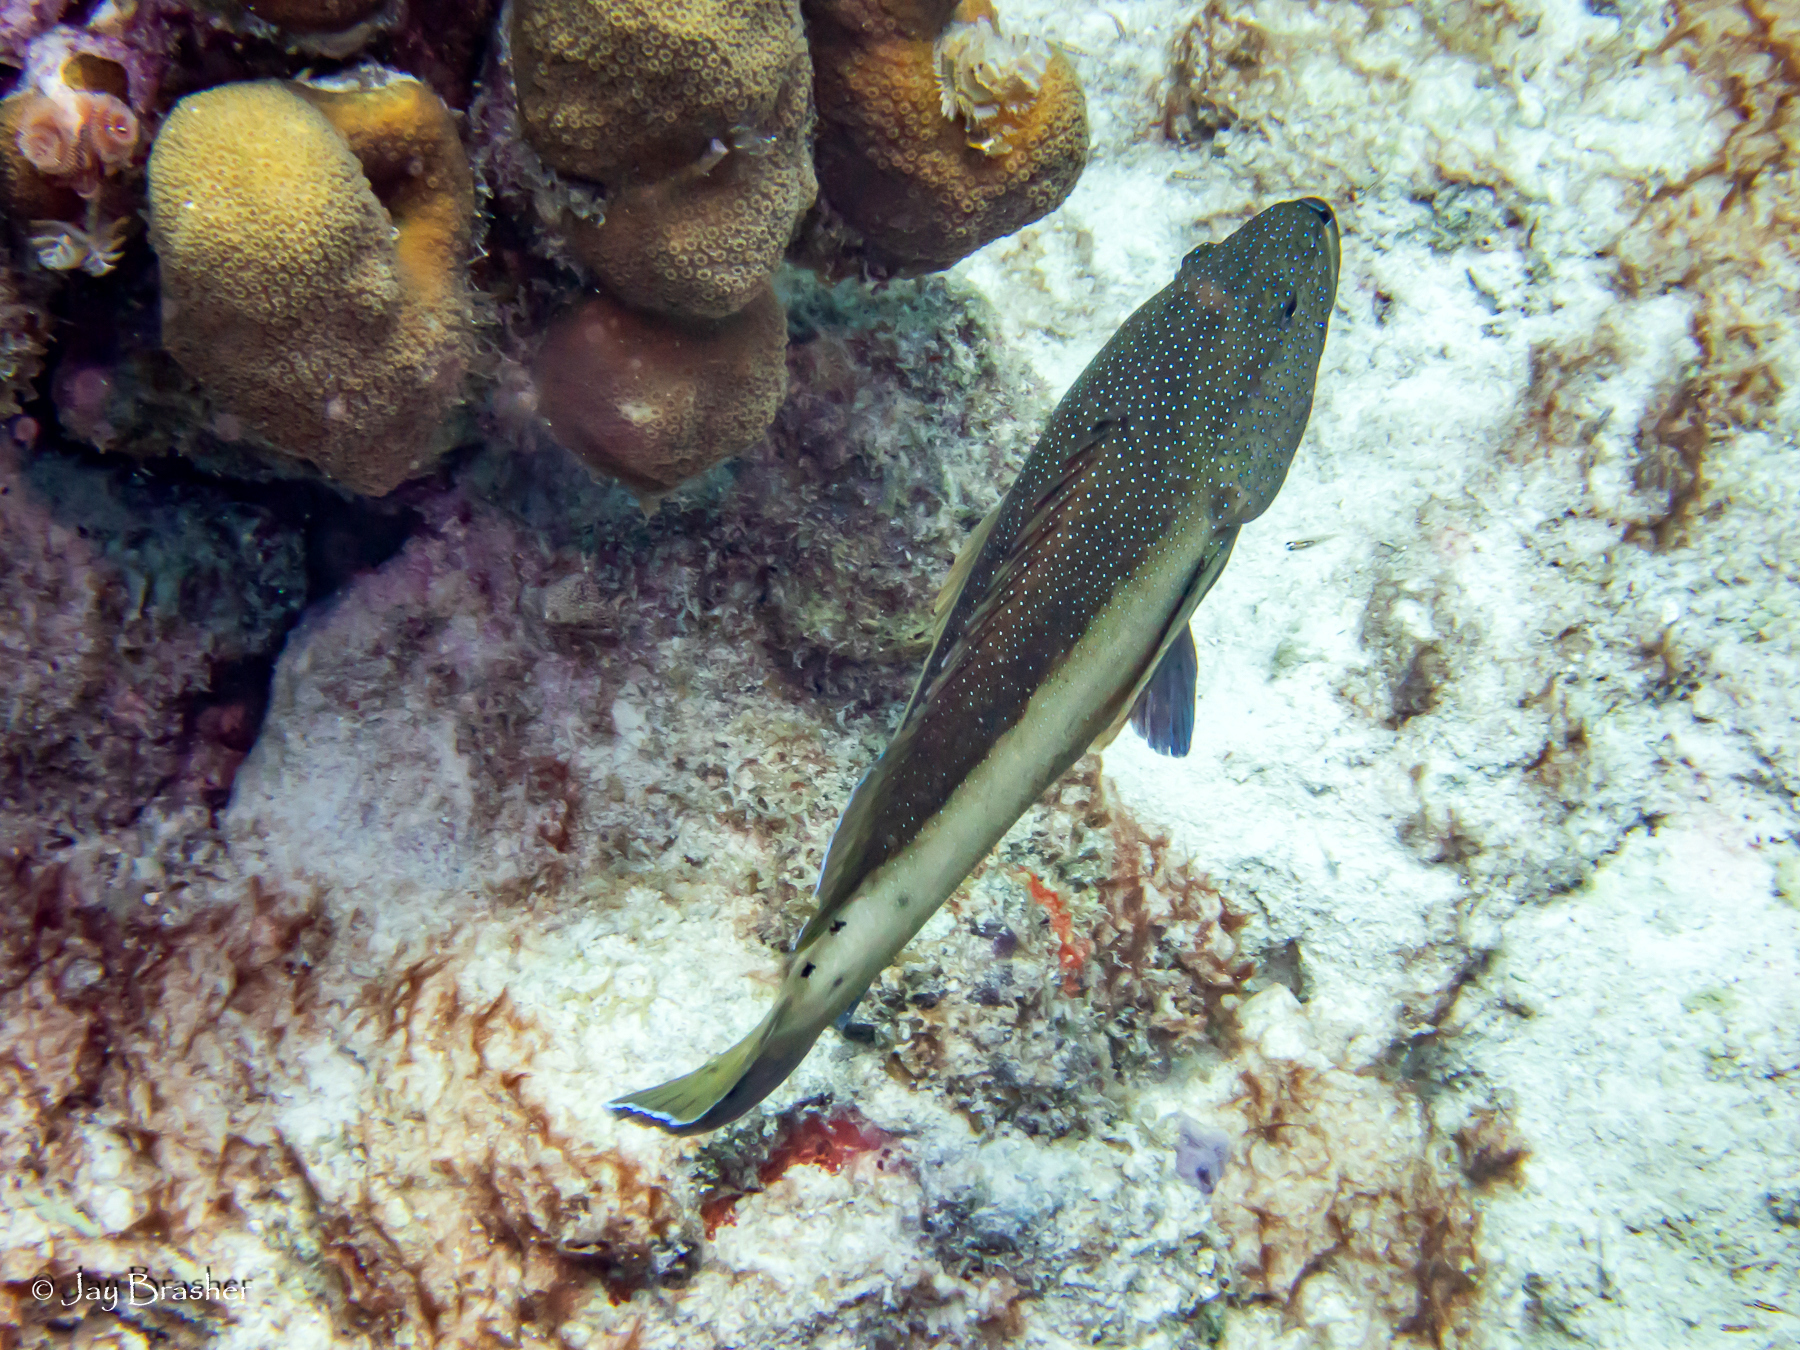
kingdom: Animalia
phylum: Chordata
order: Perciformes
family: Serranidae
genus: Cephalopholis
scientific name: Cephalopholis fulva
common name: Butterfish
